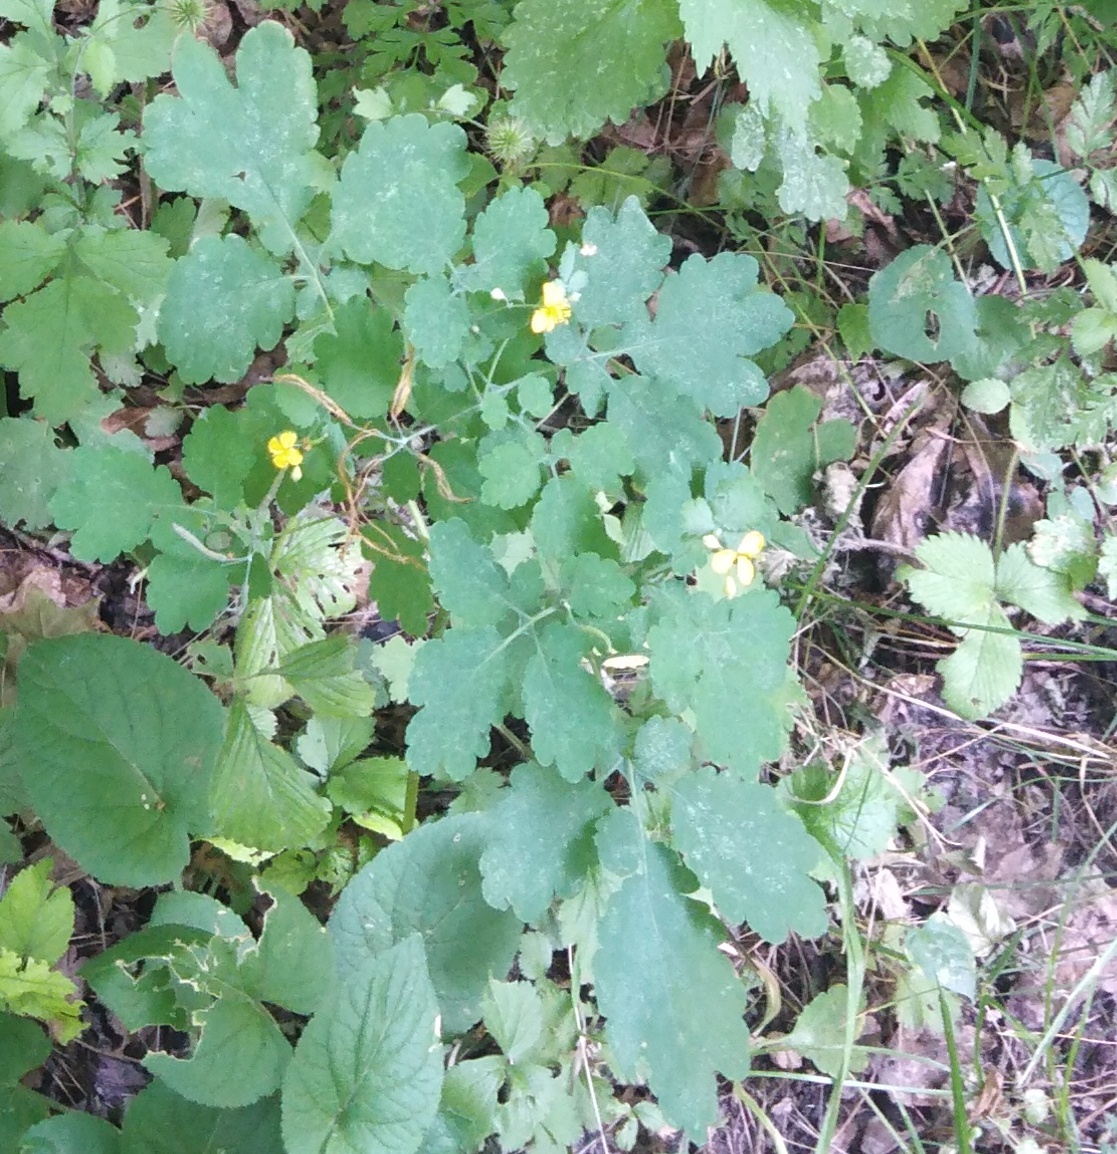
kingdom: Plantae
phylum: Tracheophyta
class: Magnoliopsida
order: Ranunculales
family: Papaveraceae
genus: Chelidonium
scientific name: Chelidonium majus
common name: Greater celandine
